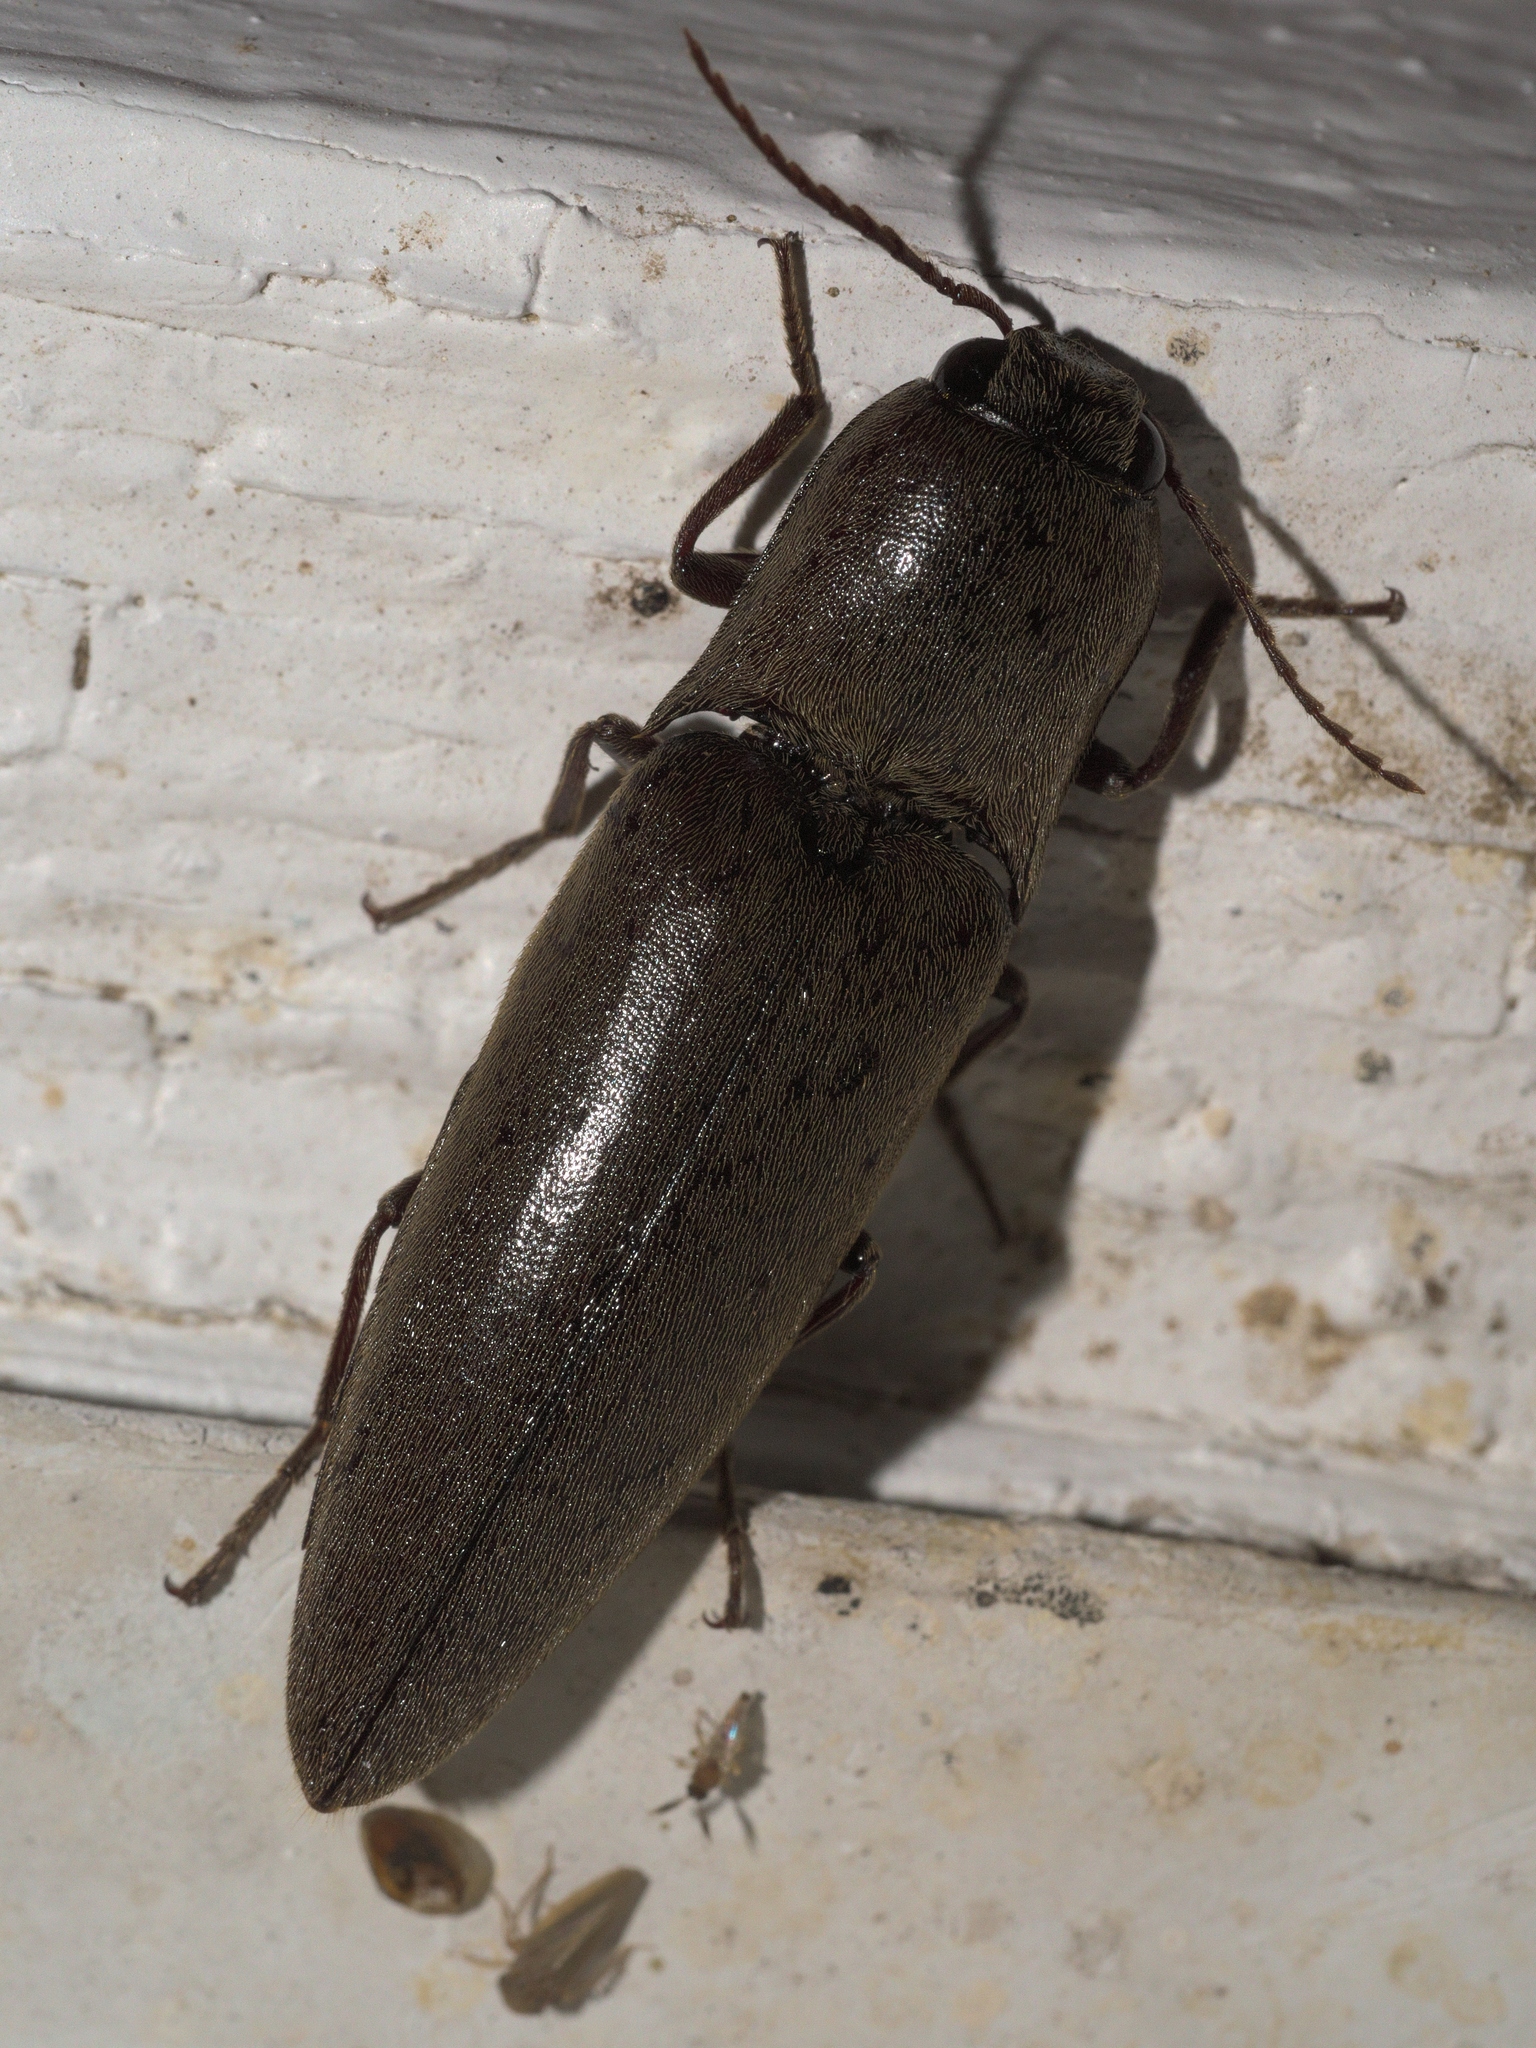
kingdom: Animalia
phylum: Arthropoda
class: Insecta
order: Coleoptera
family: Elateridae
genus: Orthostethus
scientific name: Orthostethus infuscatus
